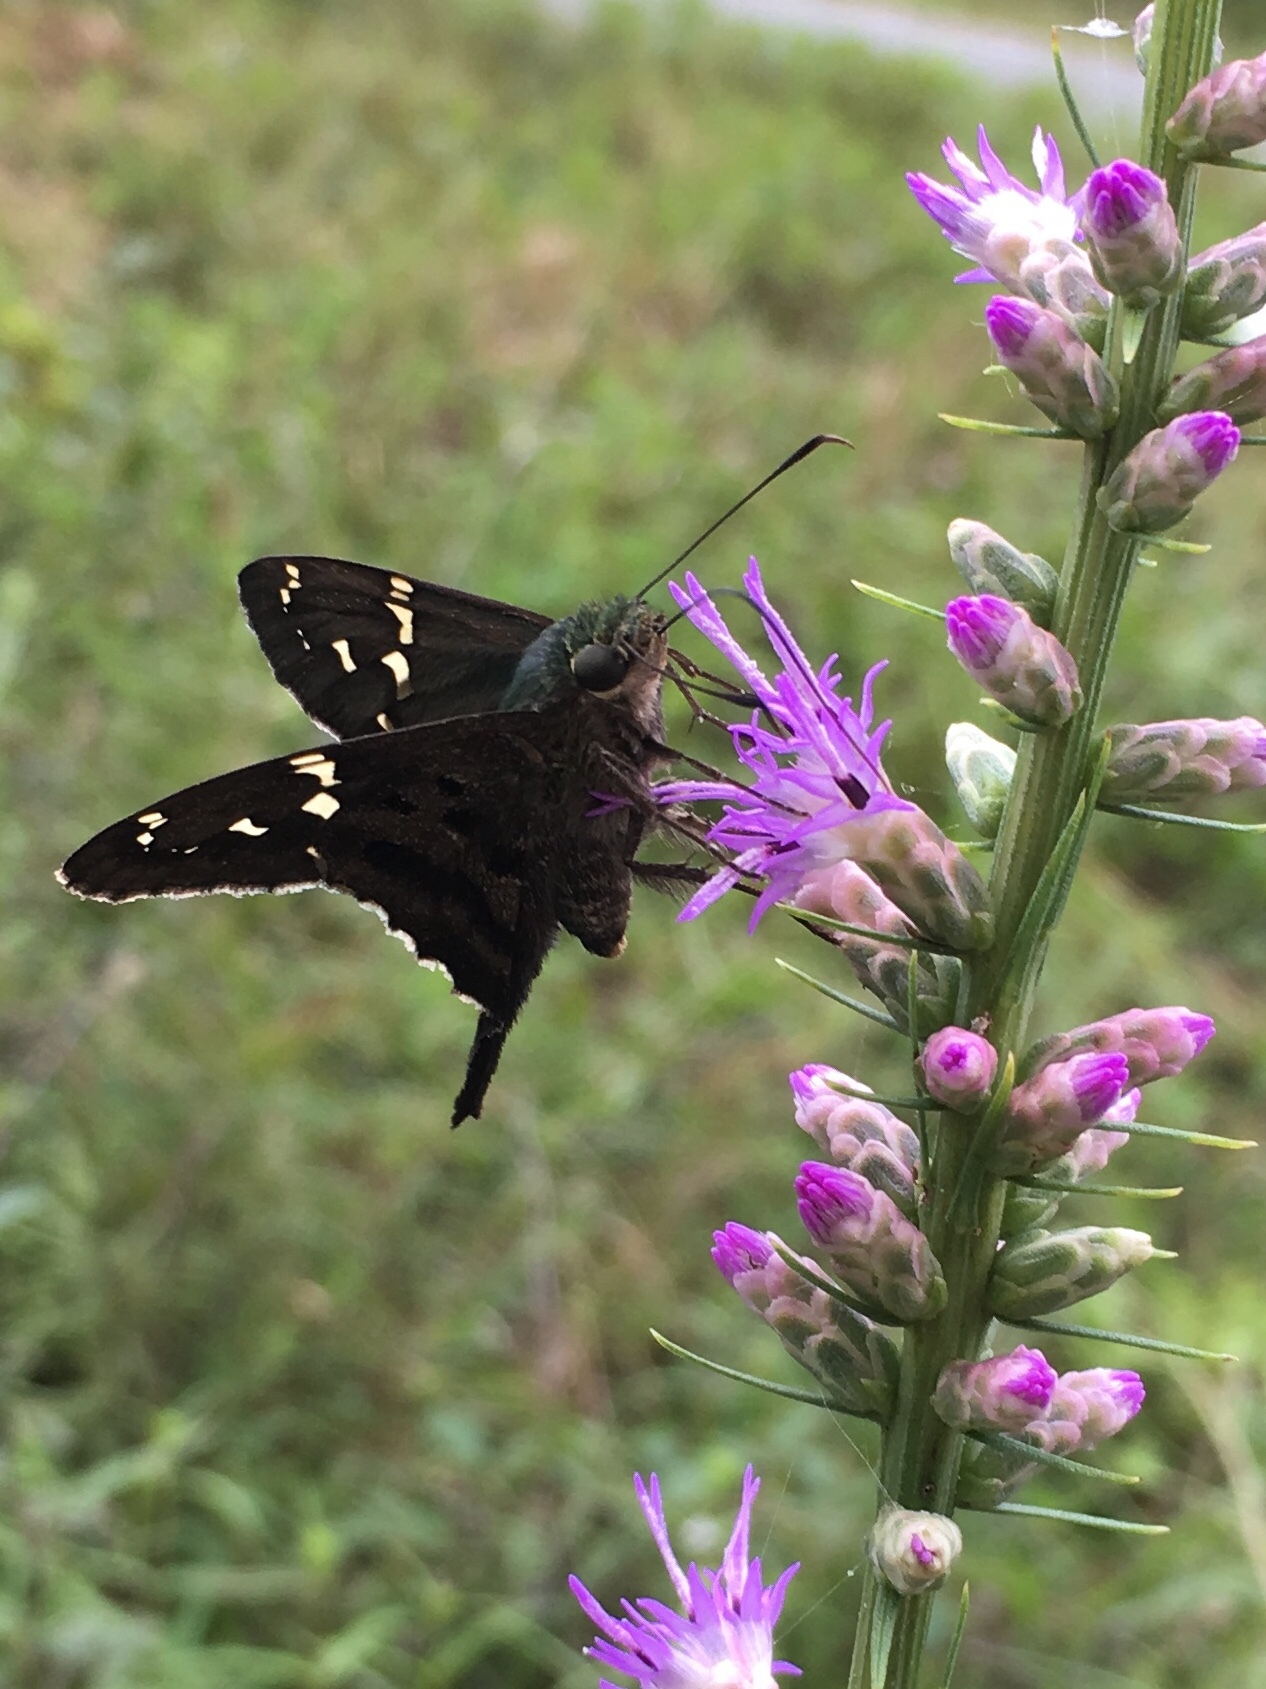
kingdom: Animalia
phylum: Arthropoda
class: Insecta
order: Lepidoptera
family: Hesperiidae
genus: Urbanus
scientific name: Urbanus proteus
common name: Long-tailed skipper
